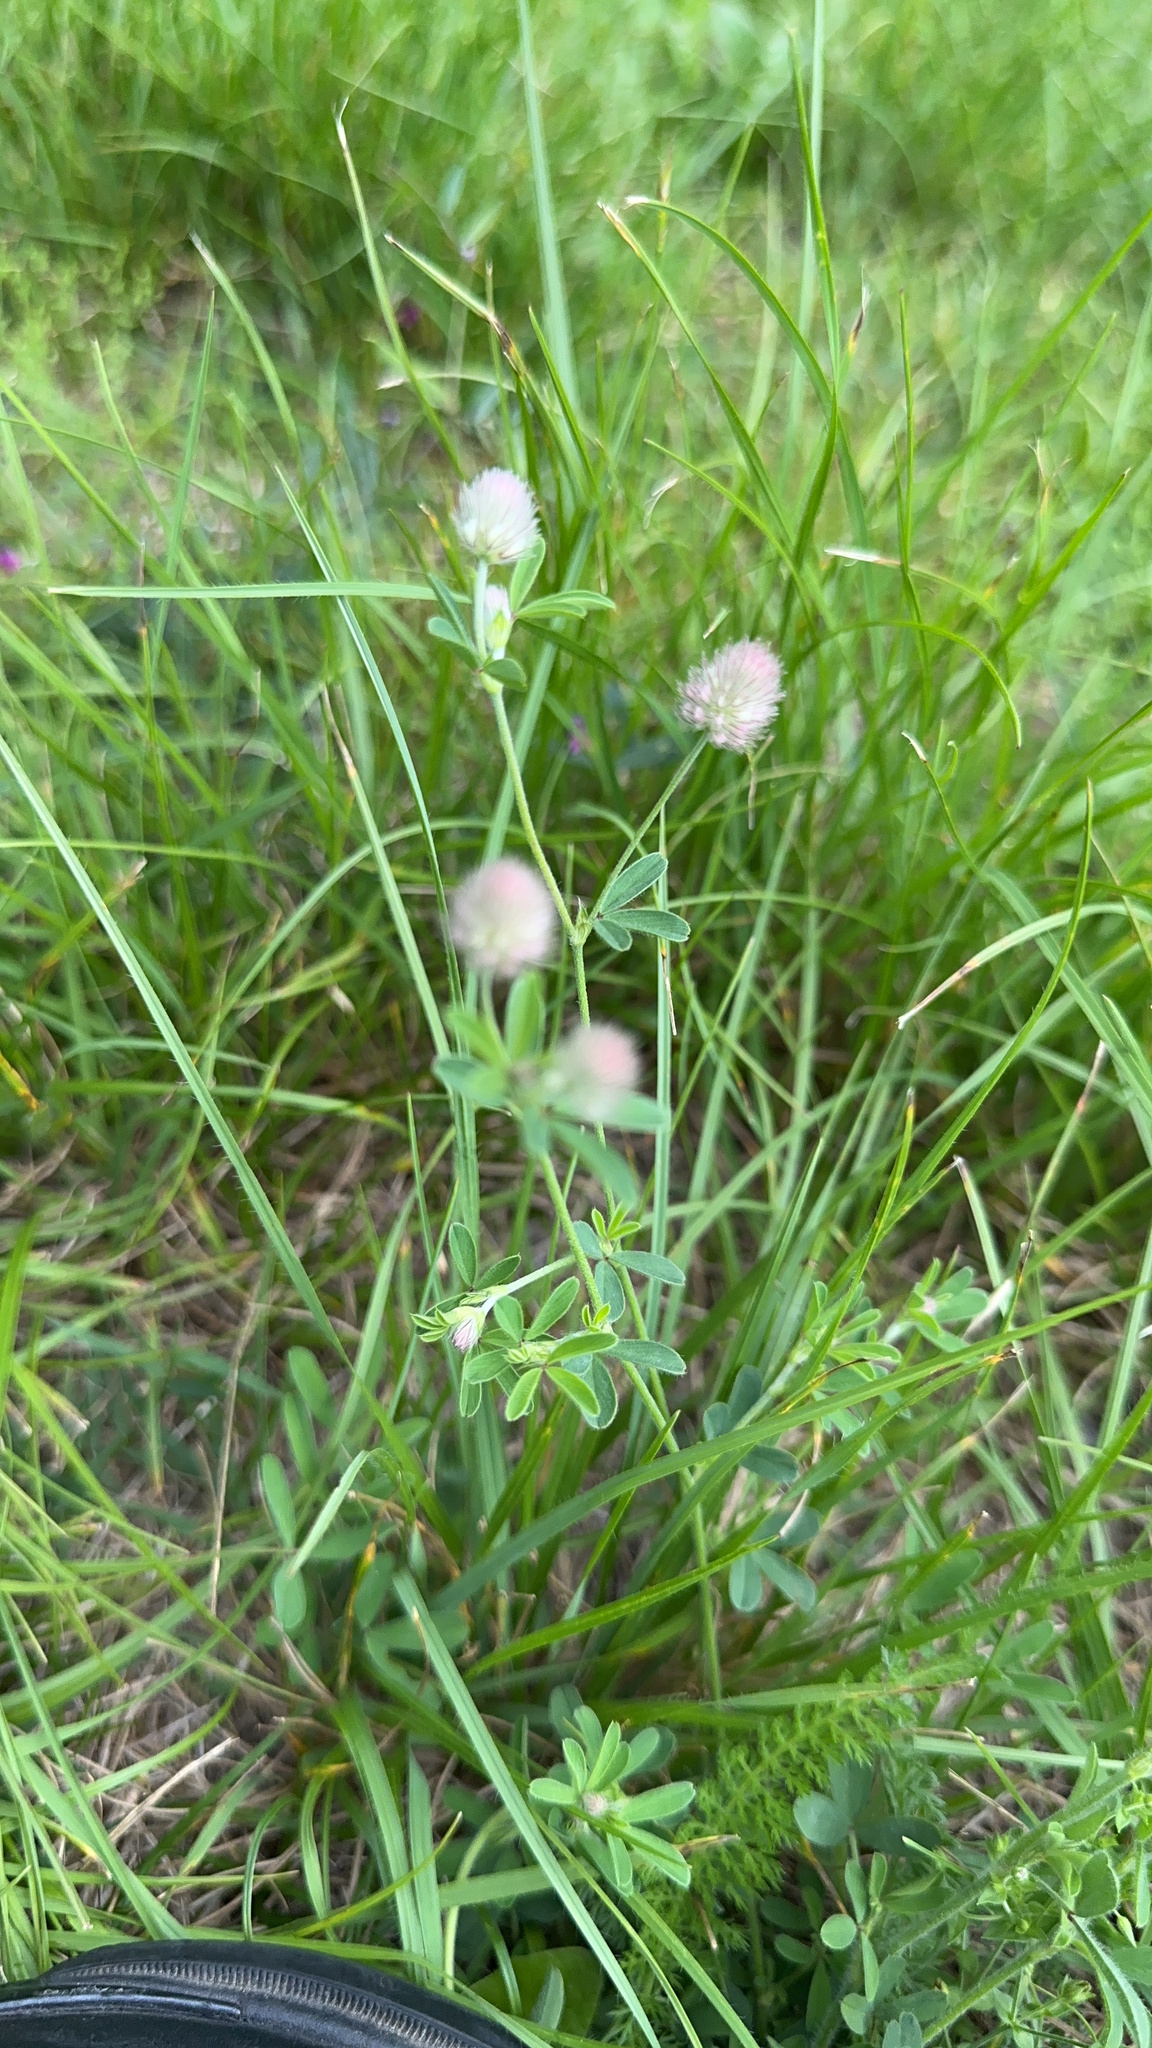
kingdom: Plantae
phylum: Tracheophyta
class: Magnoliopsida
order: Fabales
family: Fabaceae
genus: Trifolium
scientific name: Trifolium arvense
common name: Hare's-foot clover
